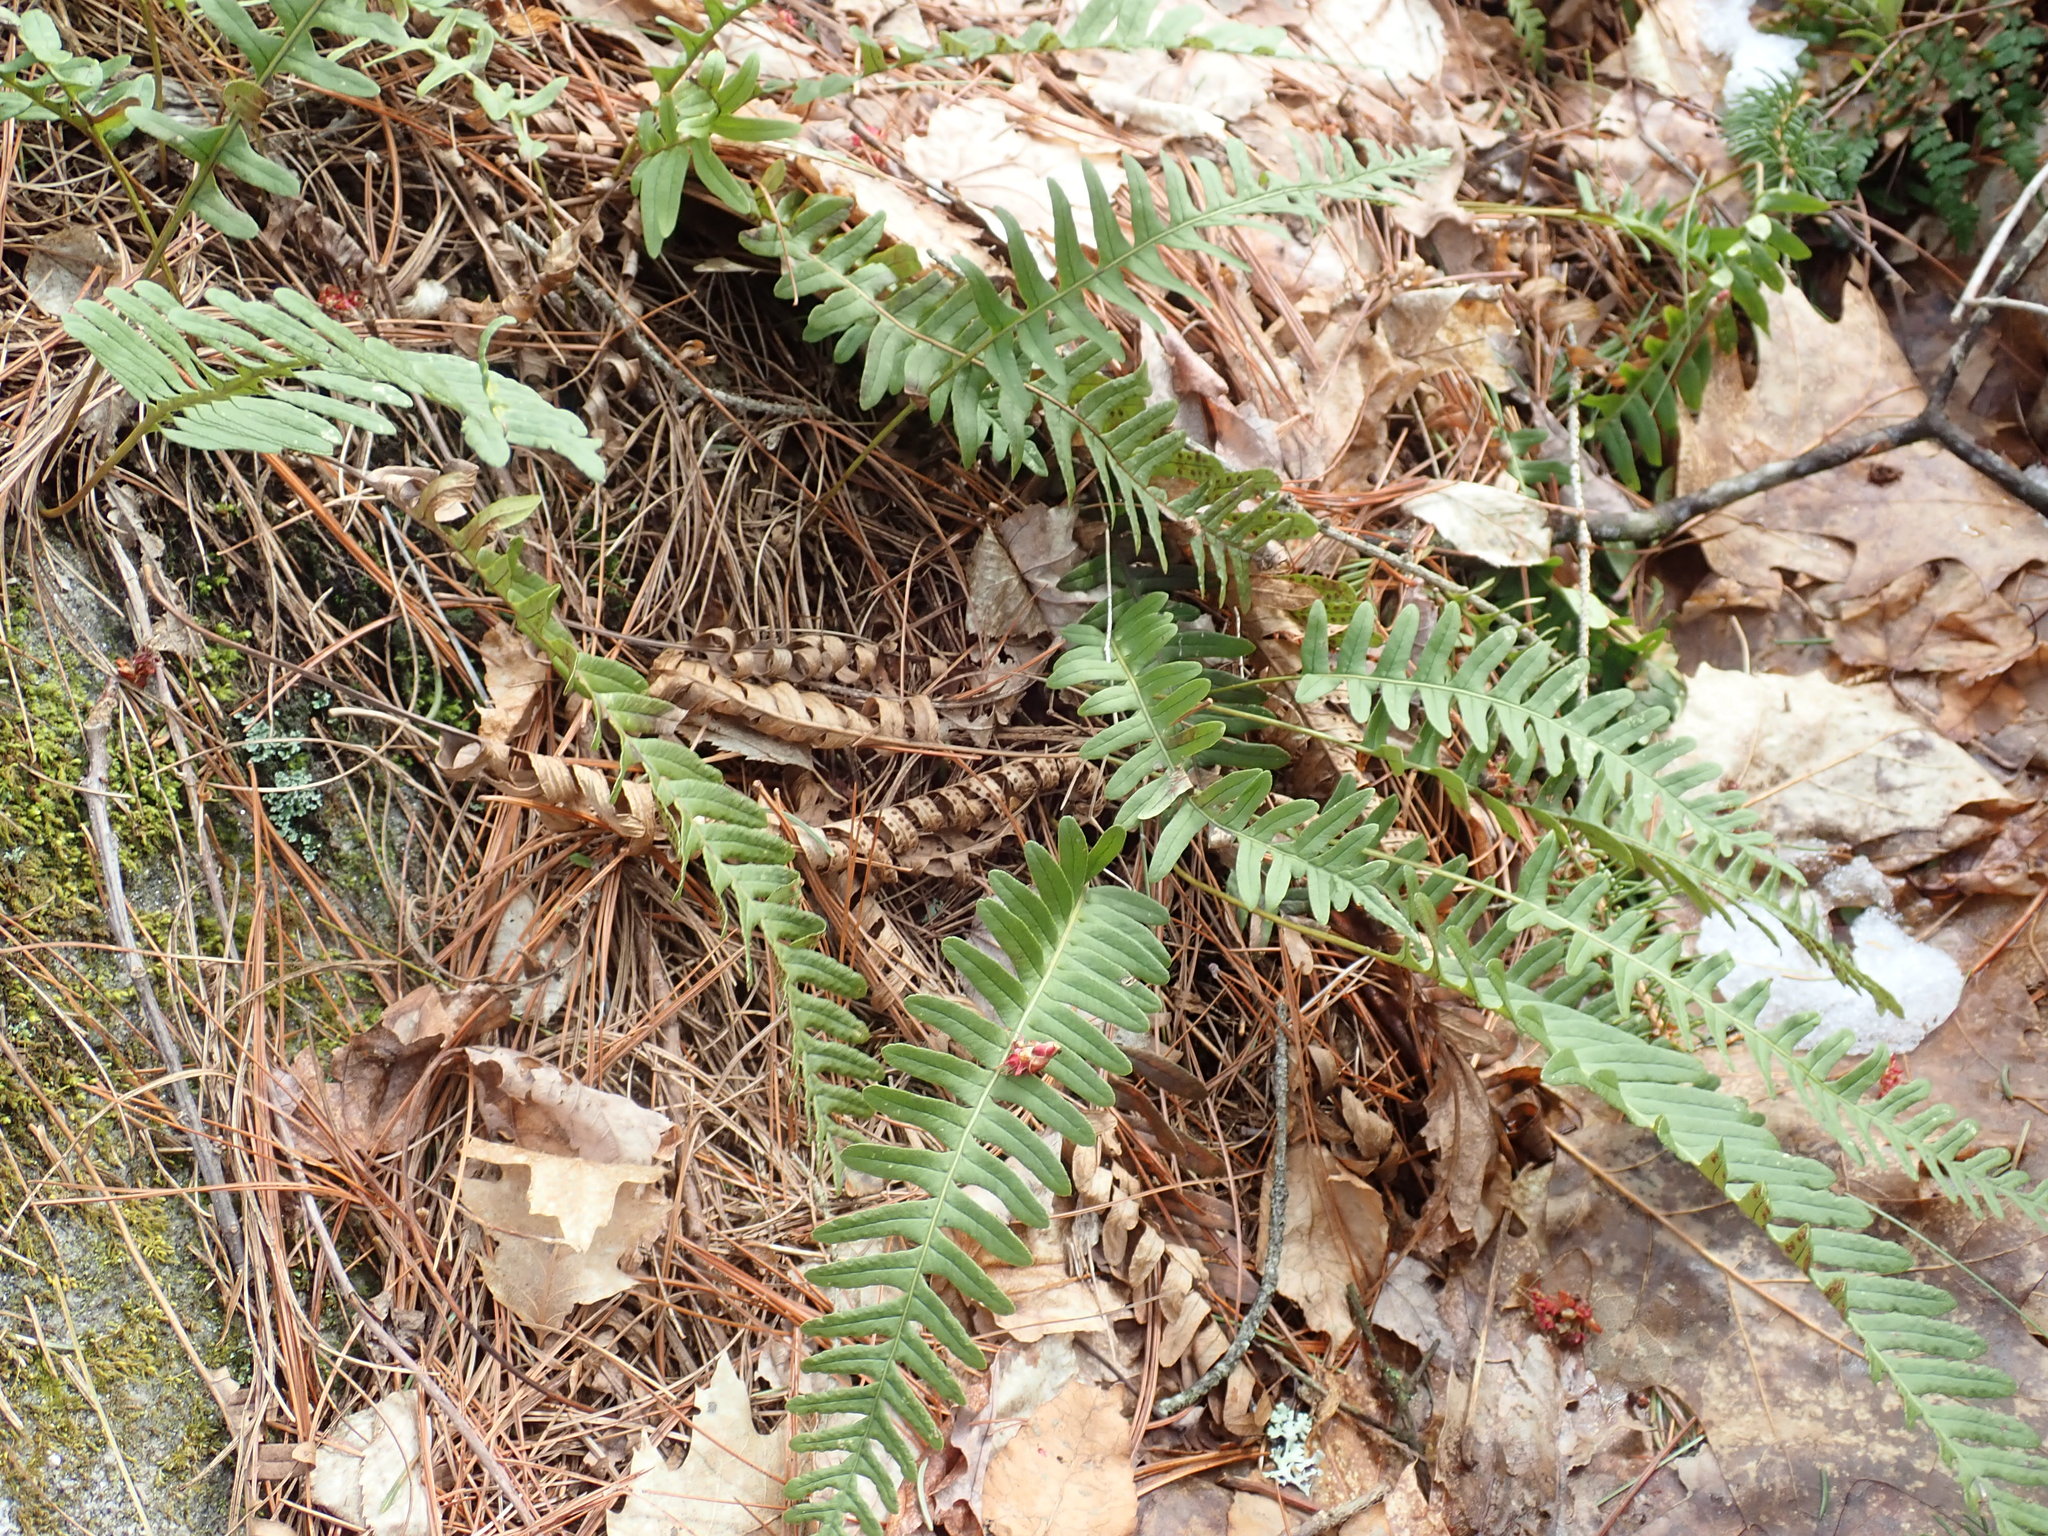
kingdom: Plantae
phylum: Tracheophyta
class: Polypodiopsida
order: Polypodiales
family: Polypodiaceae
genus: Polypodium
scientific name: Polypodium
